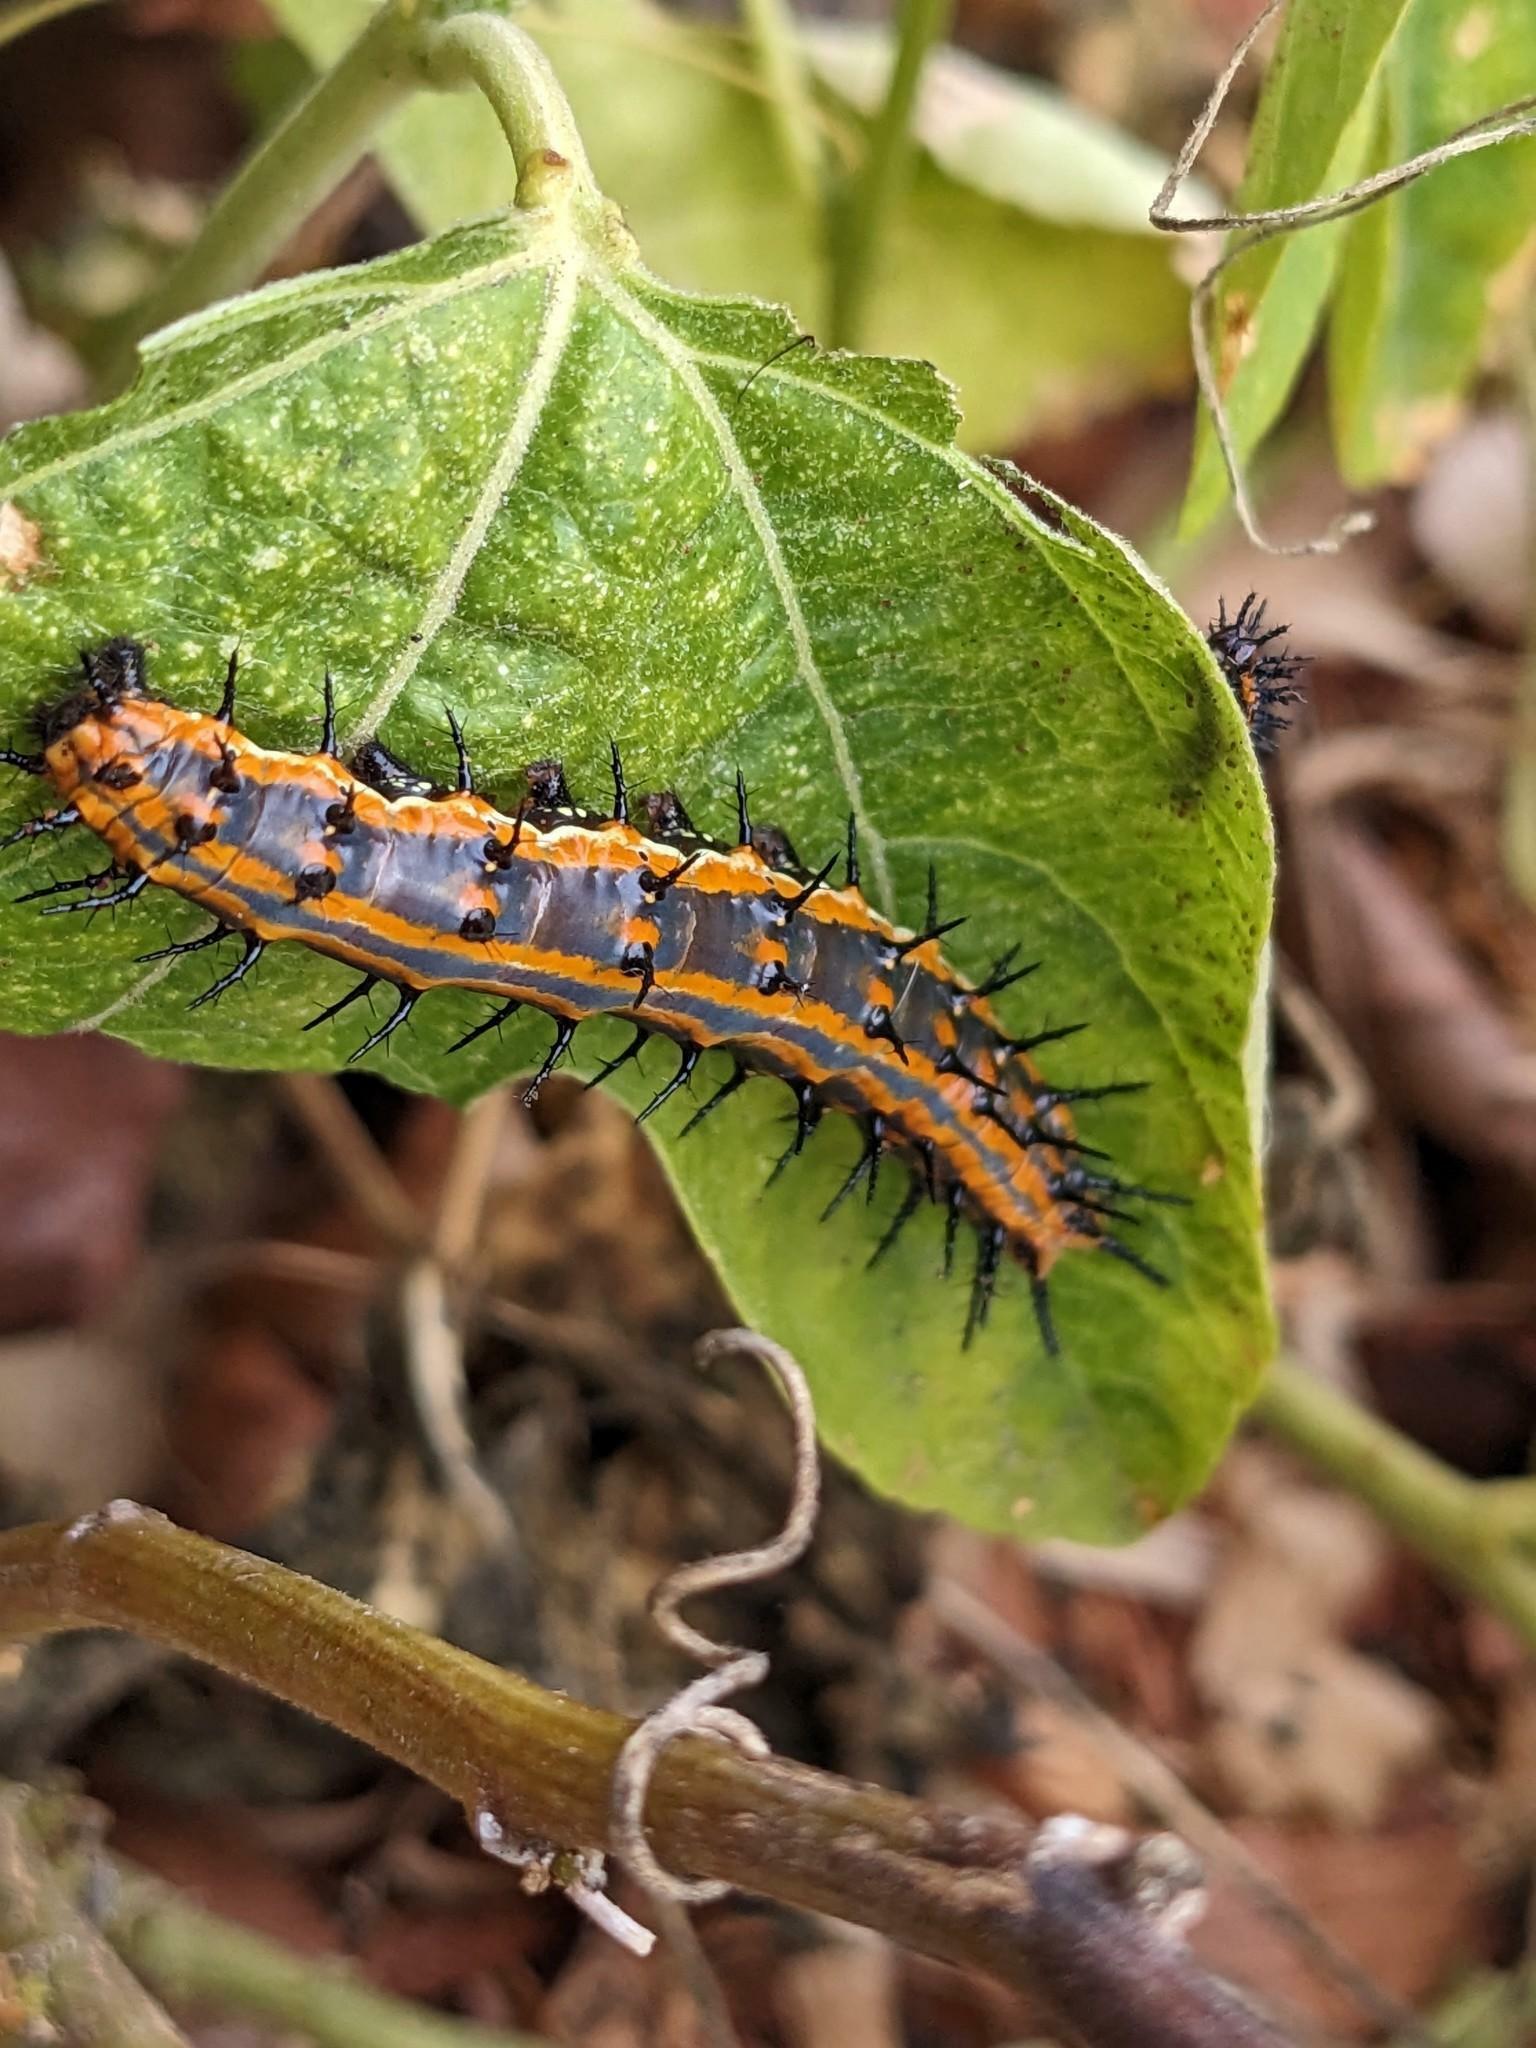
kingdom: Animalia
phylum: Arthropoda
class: Insecta
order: Lepidoptera
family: Nymphalidae
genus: Dione
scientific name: Dione vanillae
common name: Gulf fritillary
